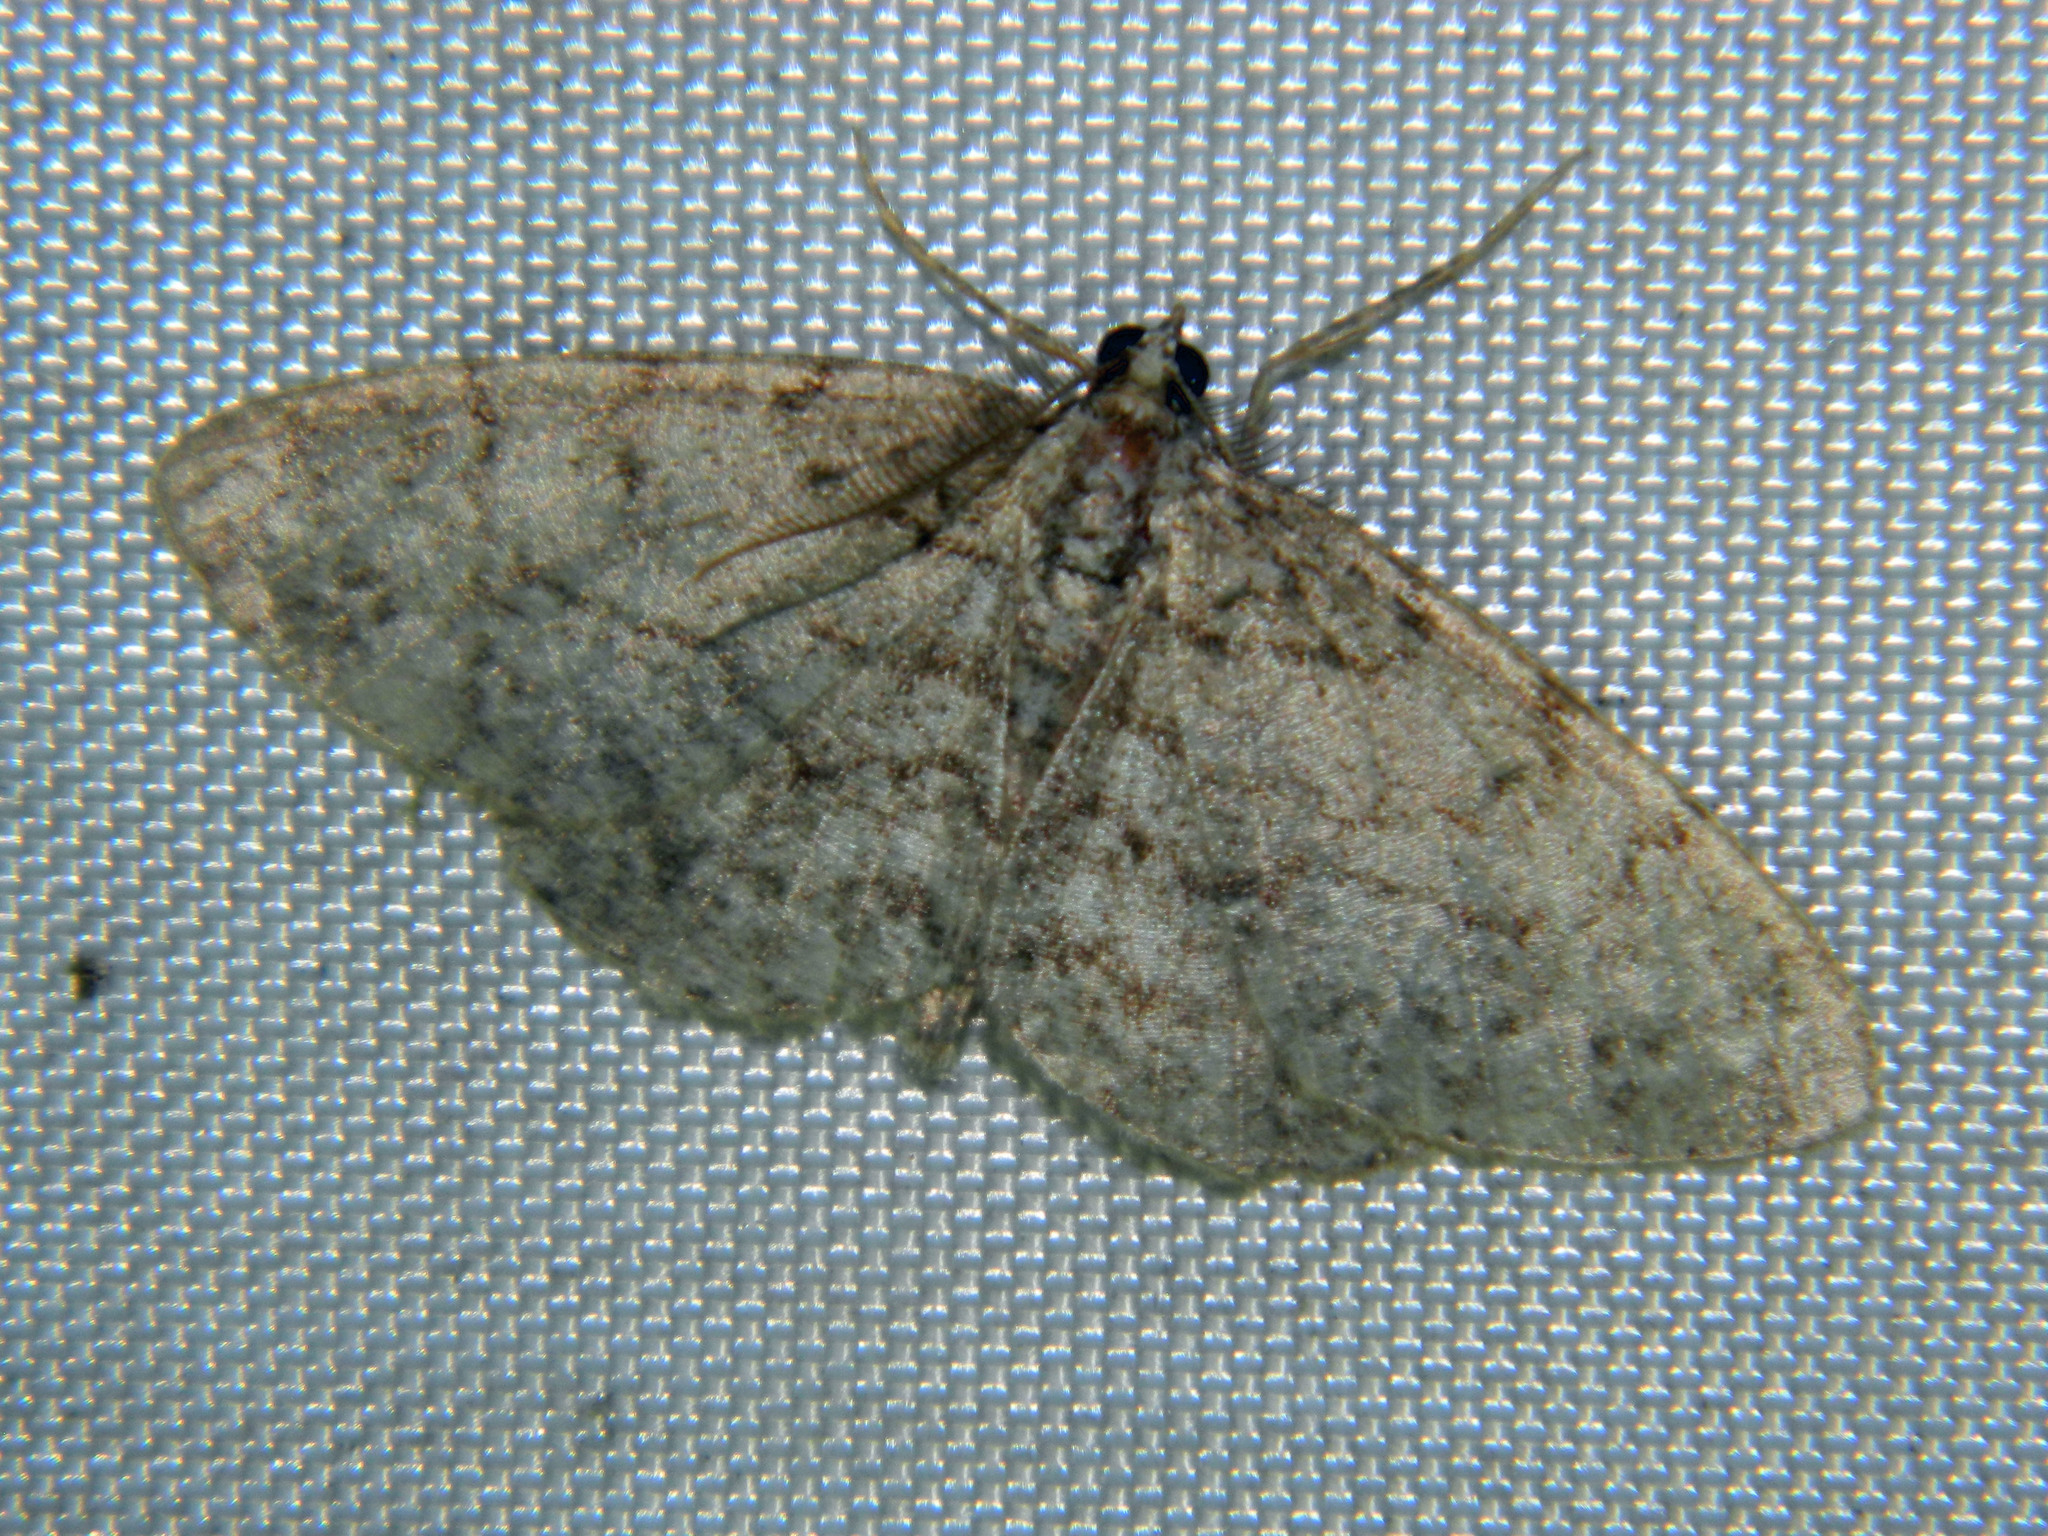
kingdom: Animalia
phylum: Arthropoda
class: Insecta
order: Lepidoptera
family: Geometridae
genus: Protoboarmia
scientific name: Protoboarmia porcelaria
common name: Porcelain gray
